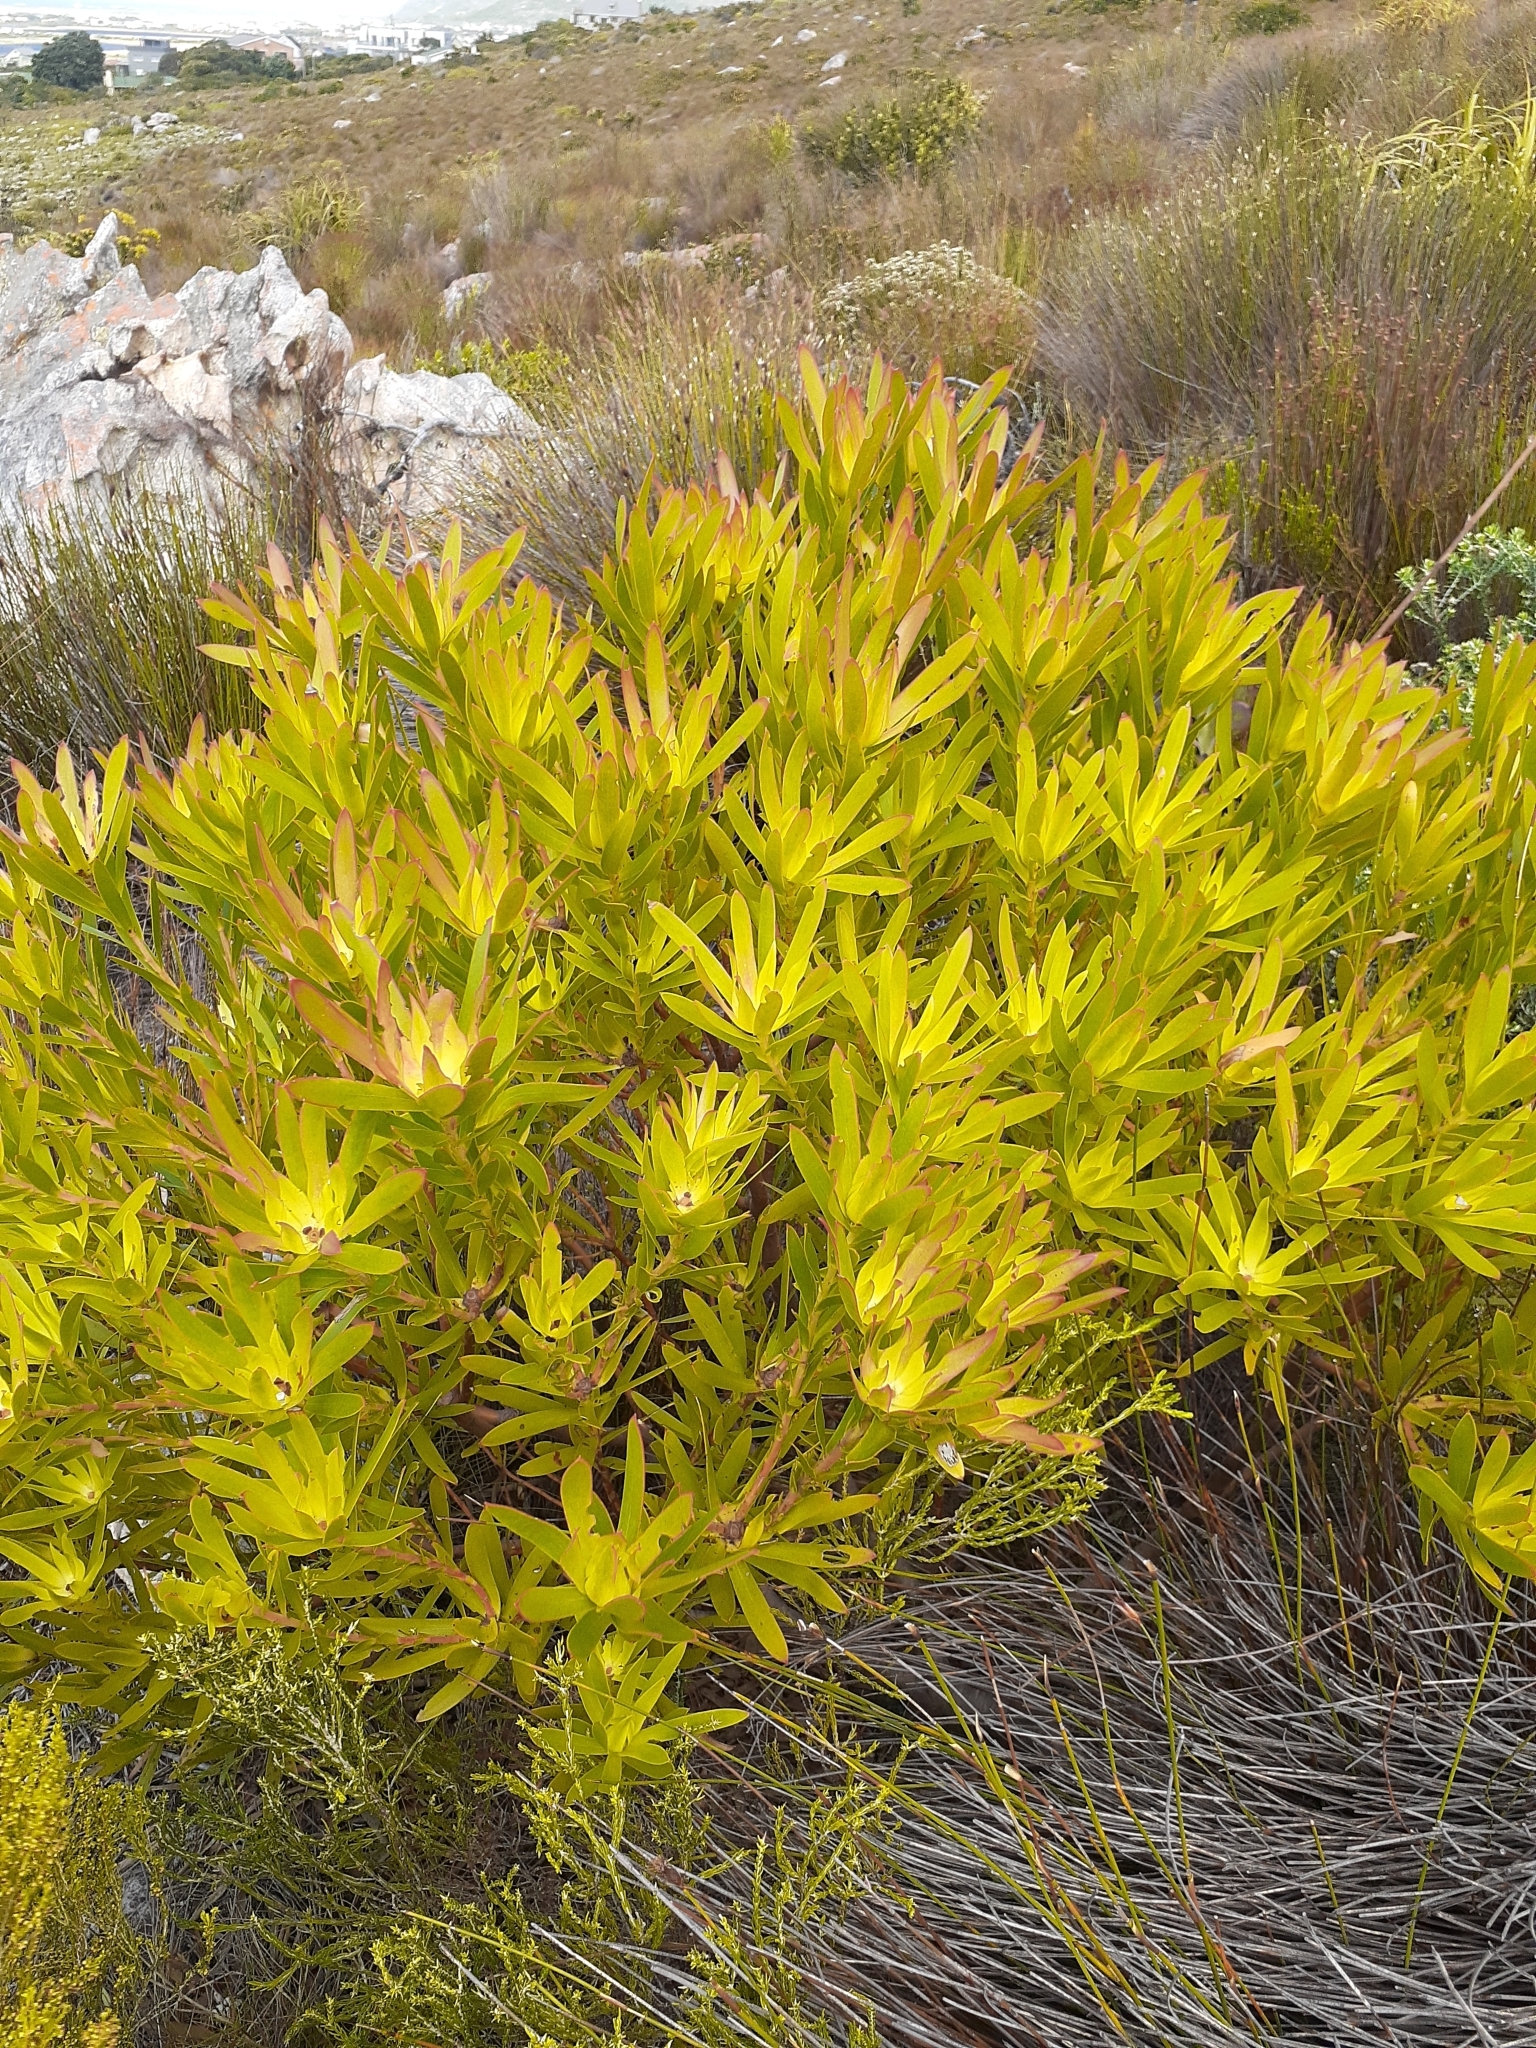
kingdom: Plantae
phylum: Tracheophyta
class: Magnoliopsida
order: Proteales
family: Proteaceae
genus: Leucadendron
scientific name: Leucadendron gandogeri
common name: Broad-leaf conebush
